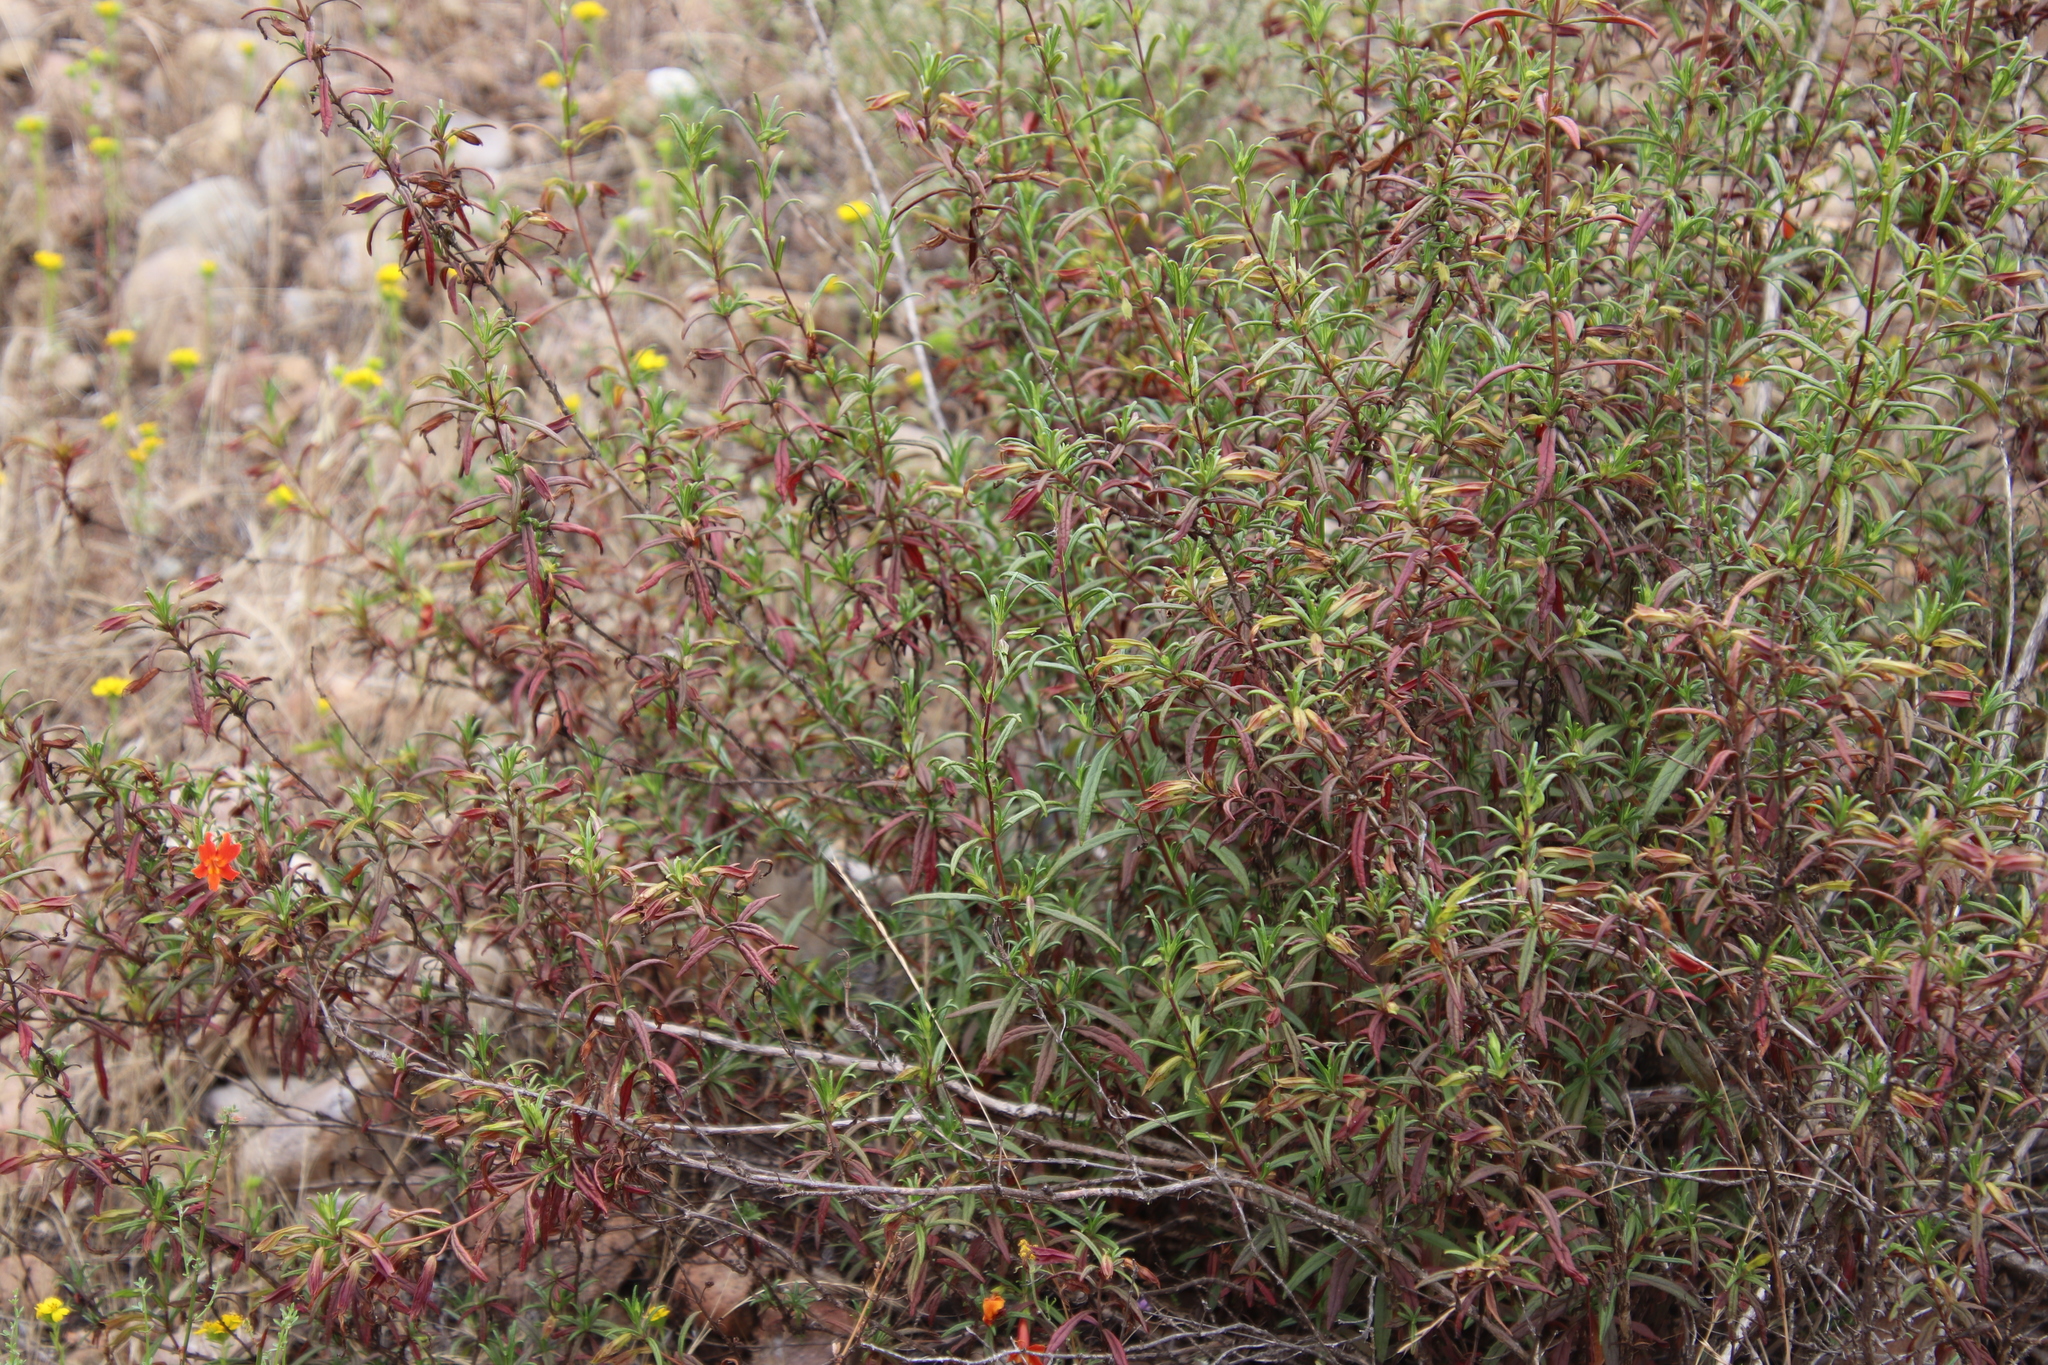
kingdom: Plantae
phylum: Tracheophyta
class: Magnoliopsida
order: Lamiales
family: Phrymaceae
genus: Diplacus
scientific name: Diplacus australis
